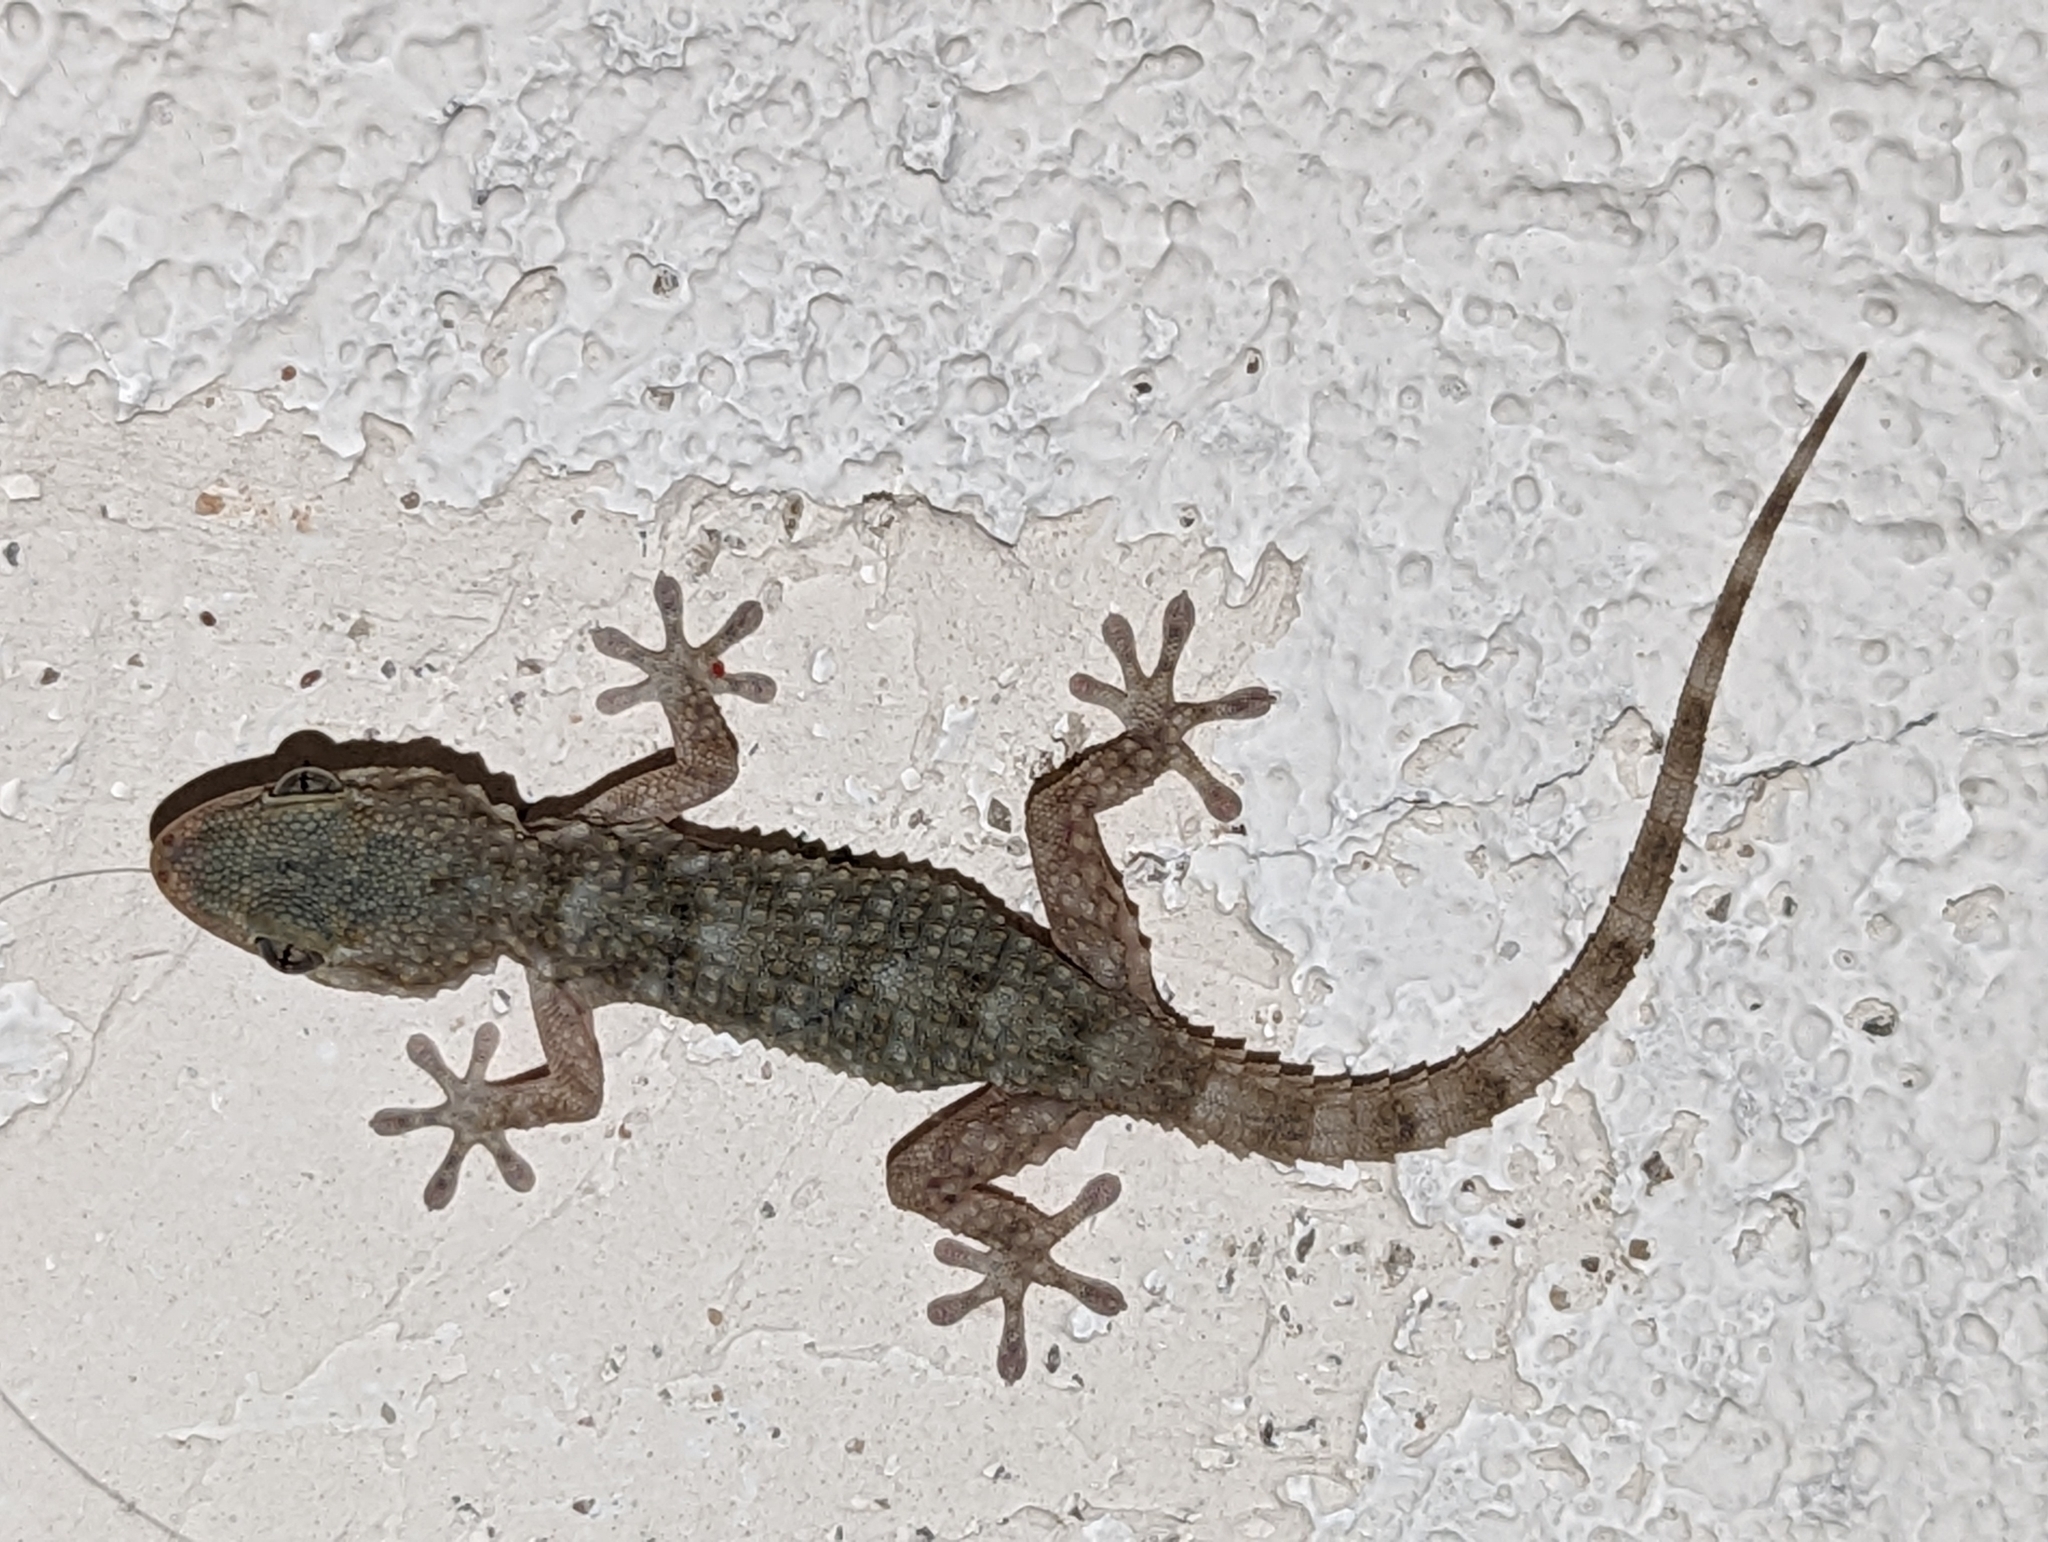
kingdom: Animalia
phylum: Chordata
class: Squamata
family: Phyllodactylidae
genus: Tarentola
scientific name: Tarentola mauritanica
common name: Moorish gecko
